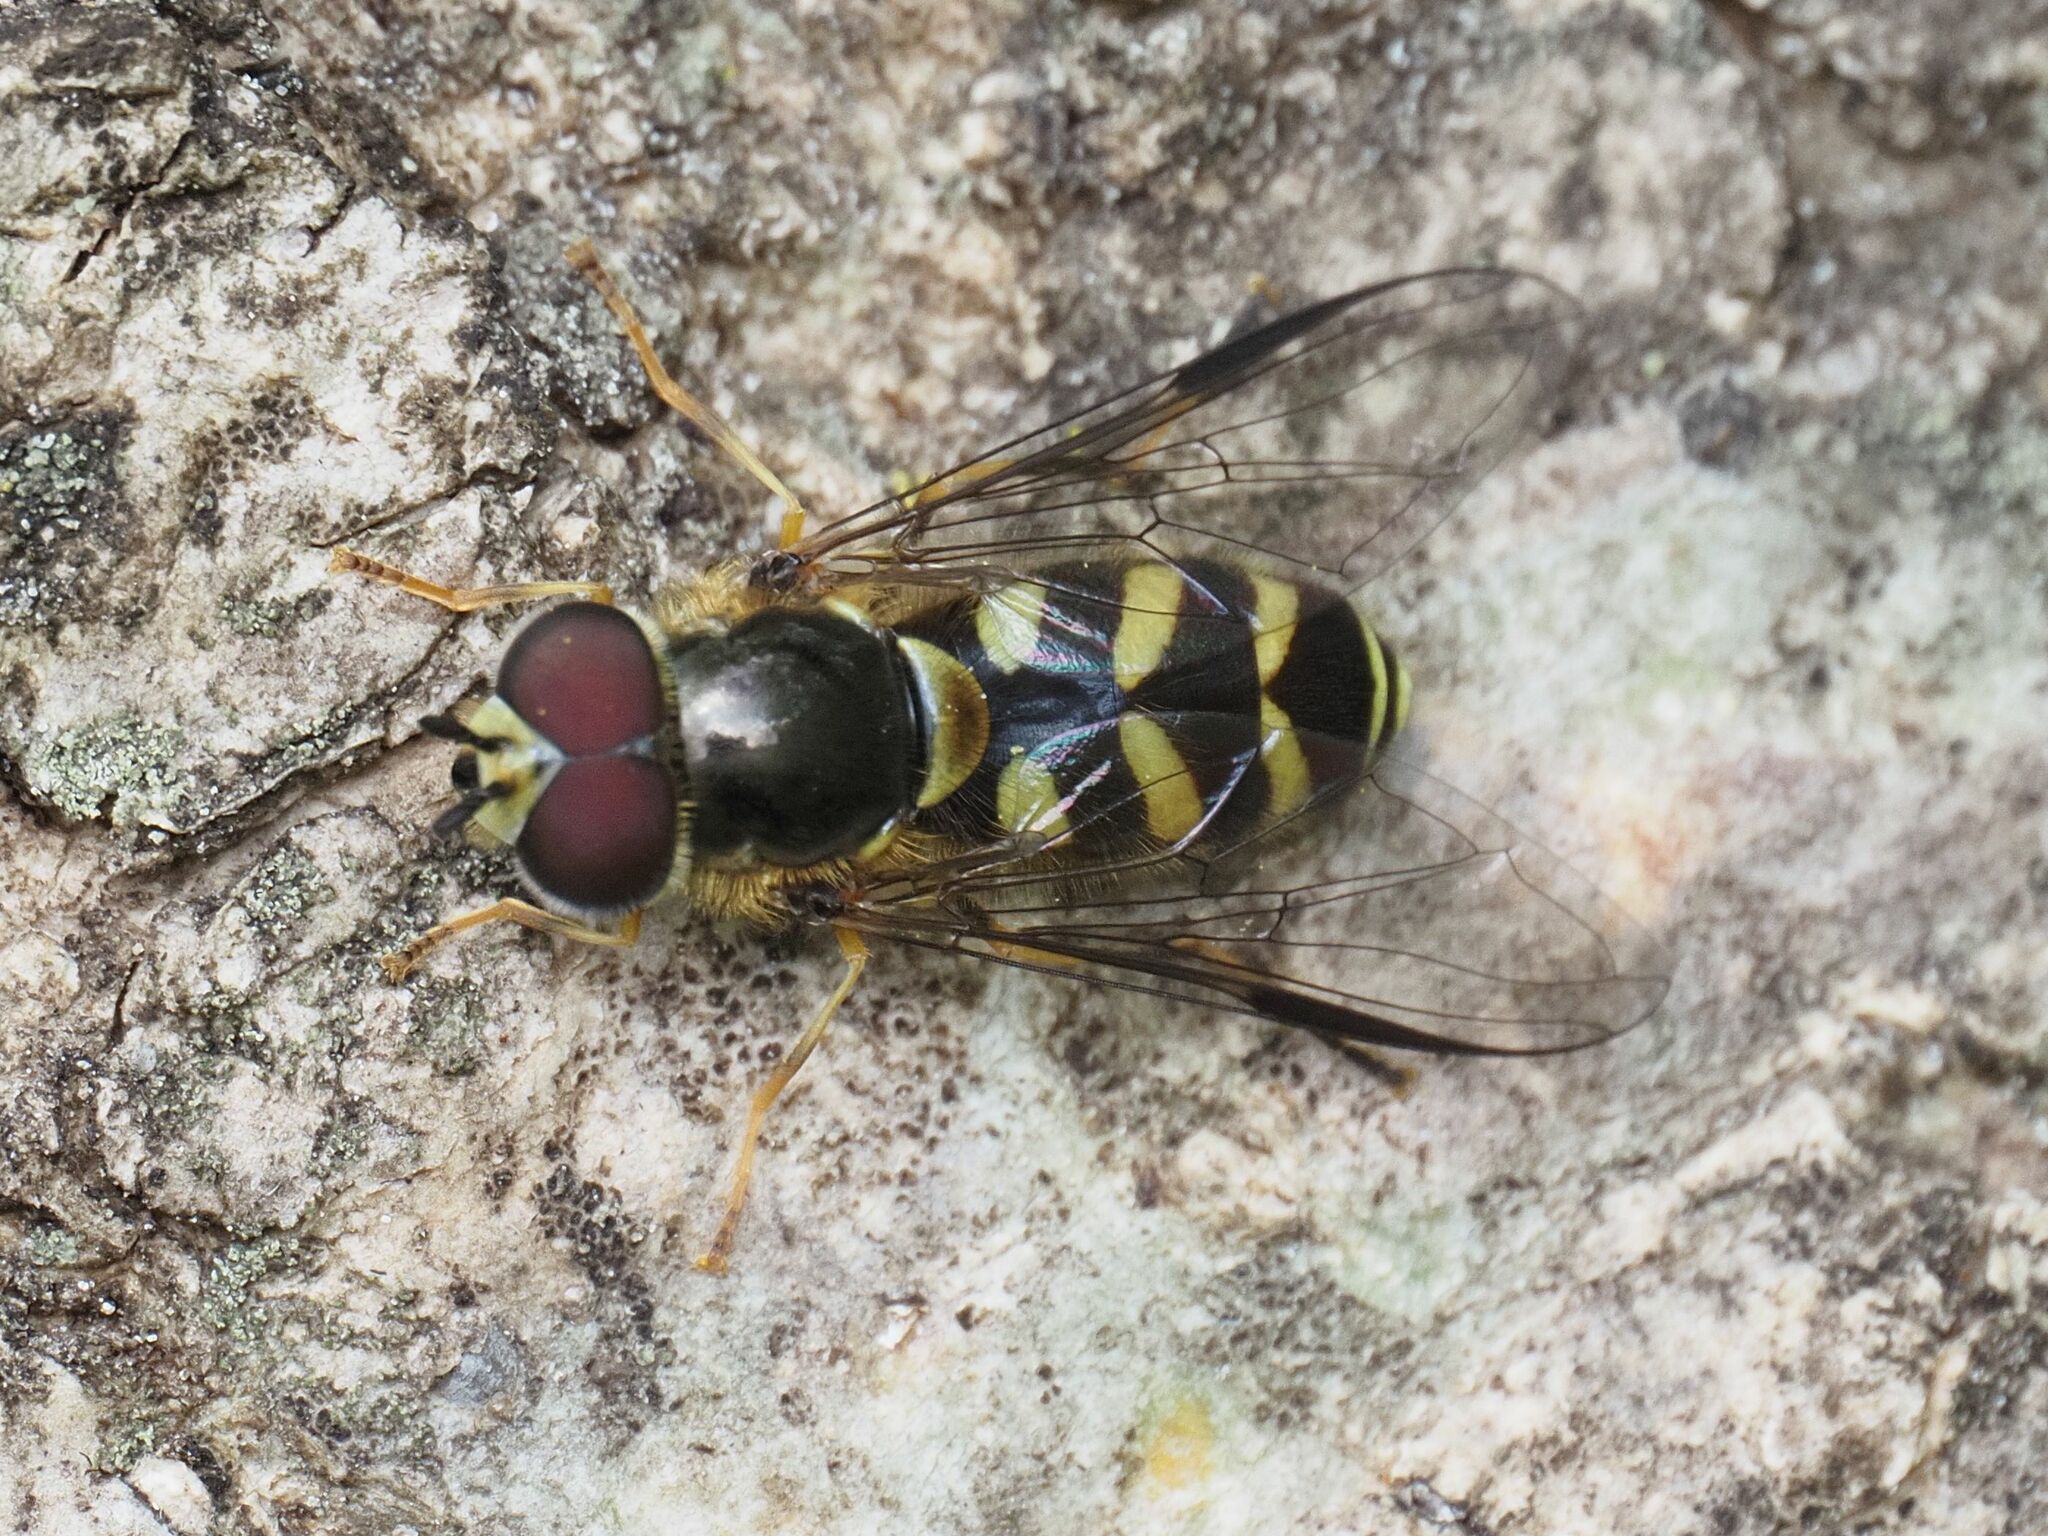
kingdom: Animalia
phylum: Arthropoda
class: Insecta
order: Diptera
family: Syrphidae
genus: Dasysyrphus
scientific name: Dasysyrphus albostriatus
